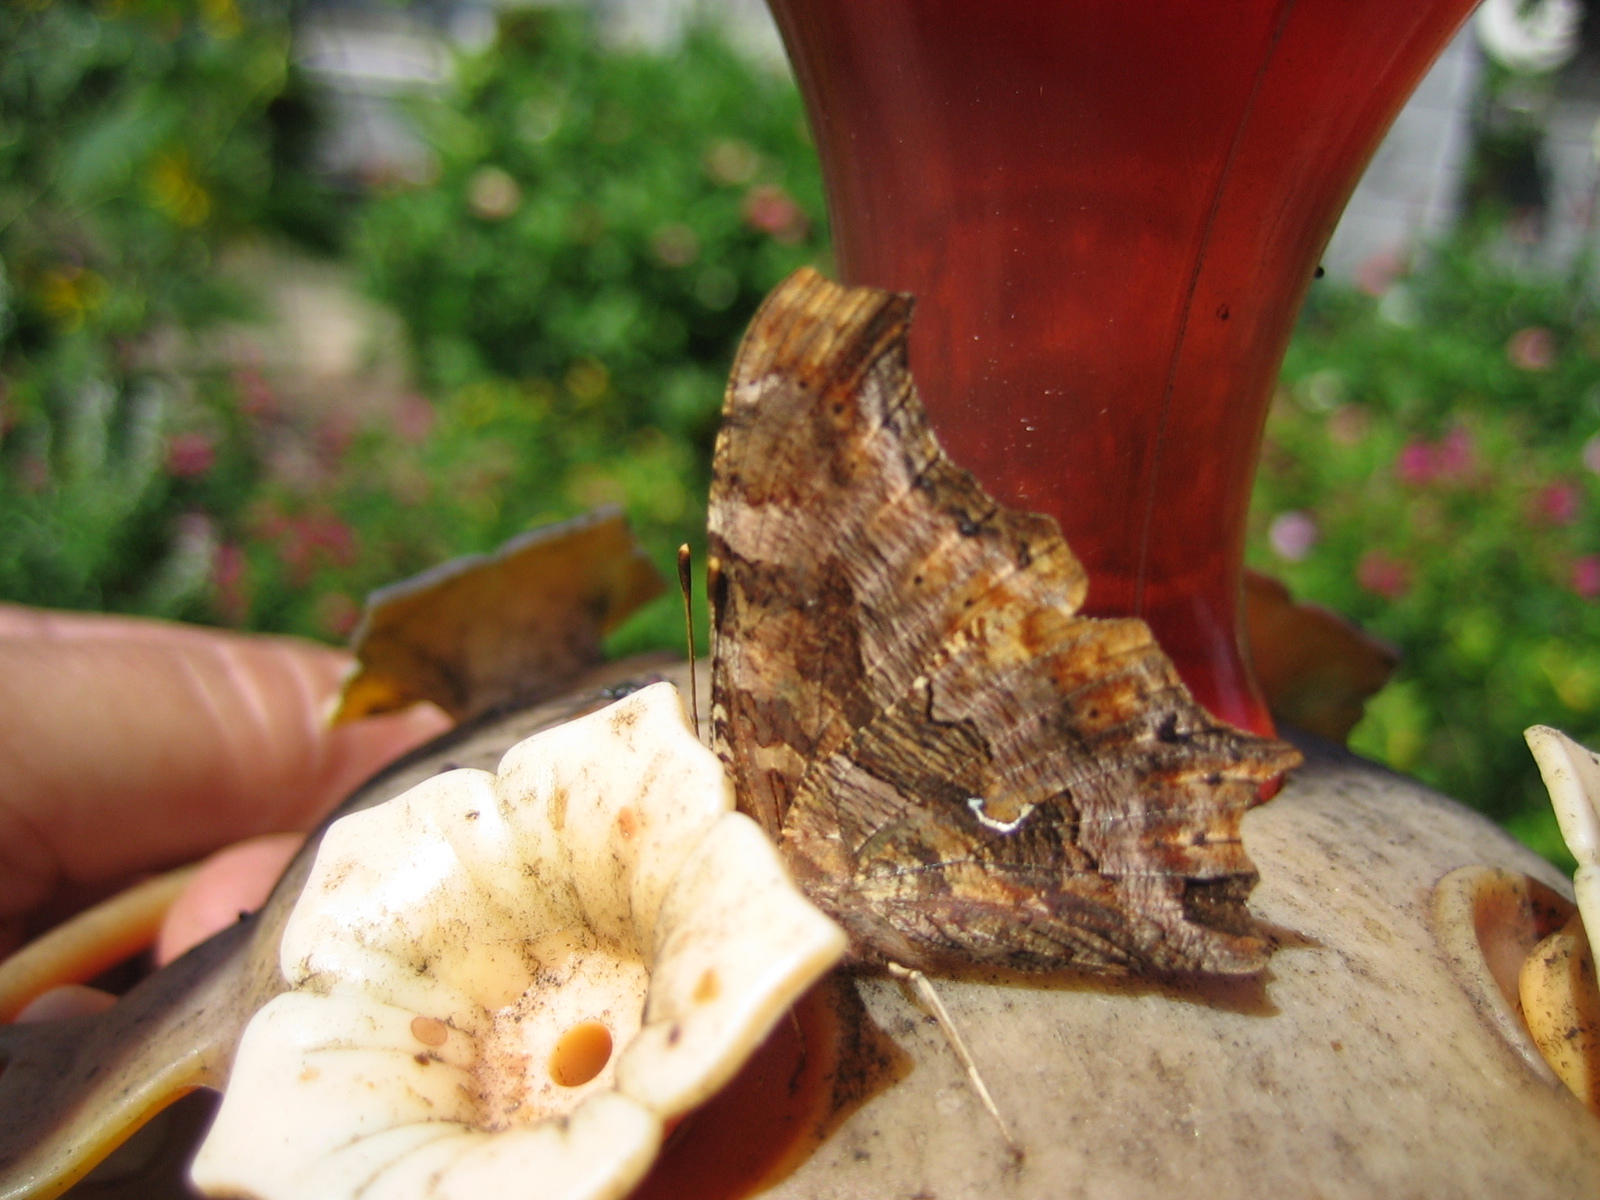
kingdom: Animalia
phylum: Arthropoda
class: Insecta
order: Lepidoptera
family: Nymphalidae
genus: Polygonia
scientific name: Polygonia comma
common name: Eastern comma
